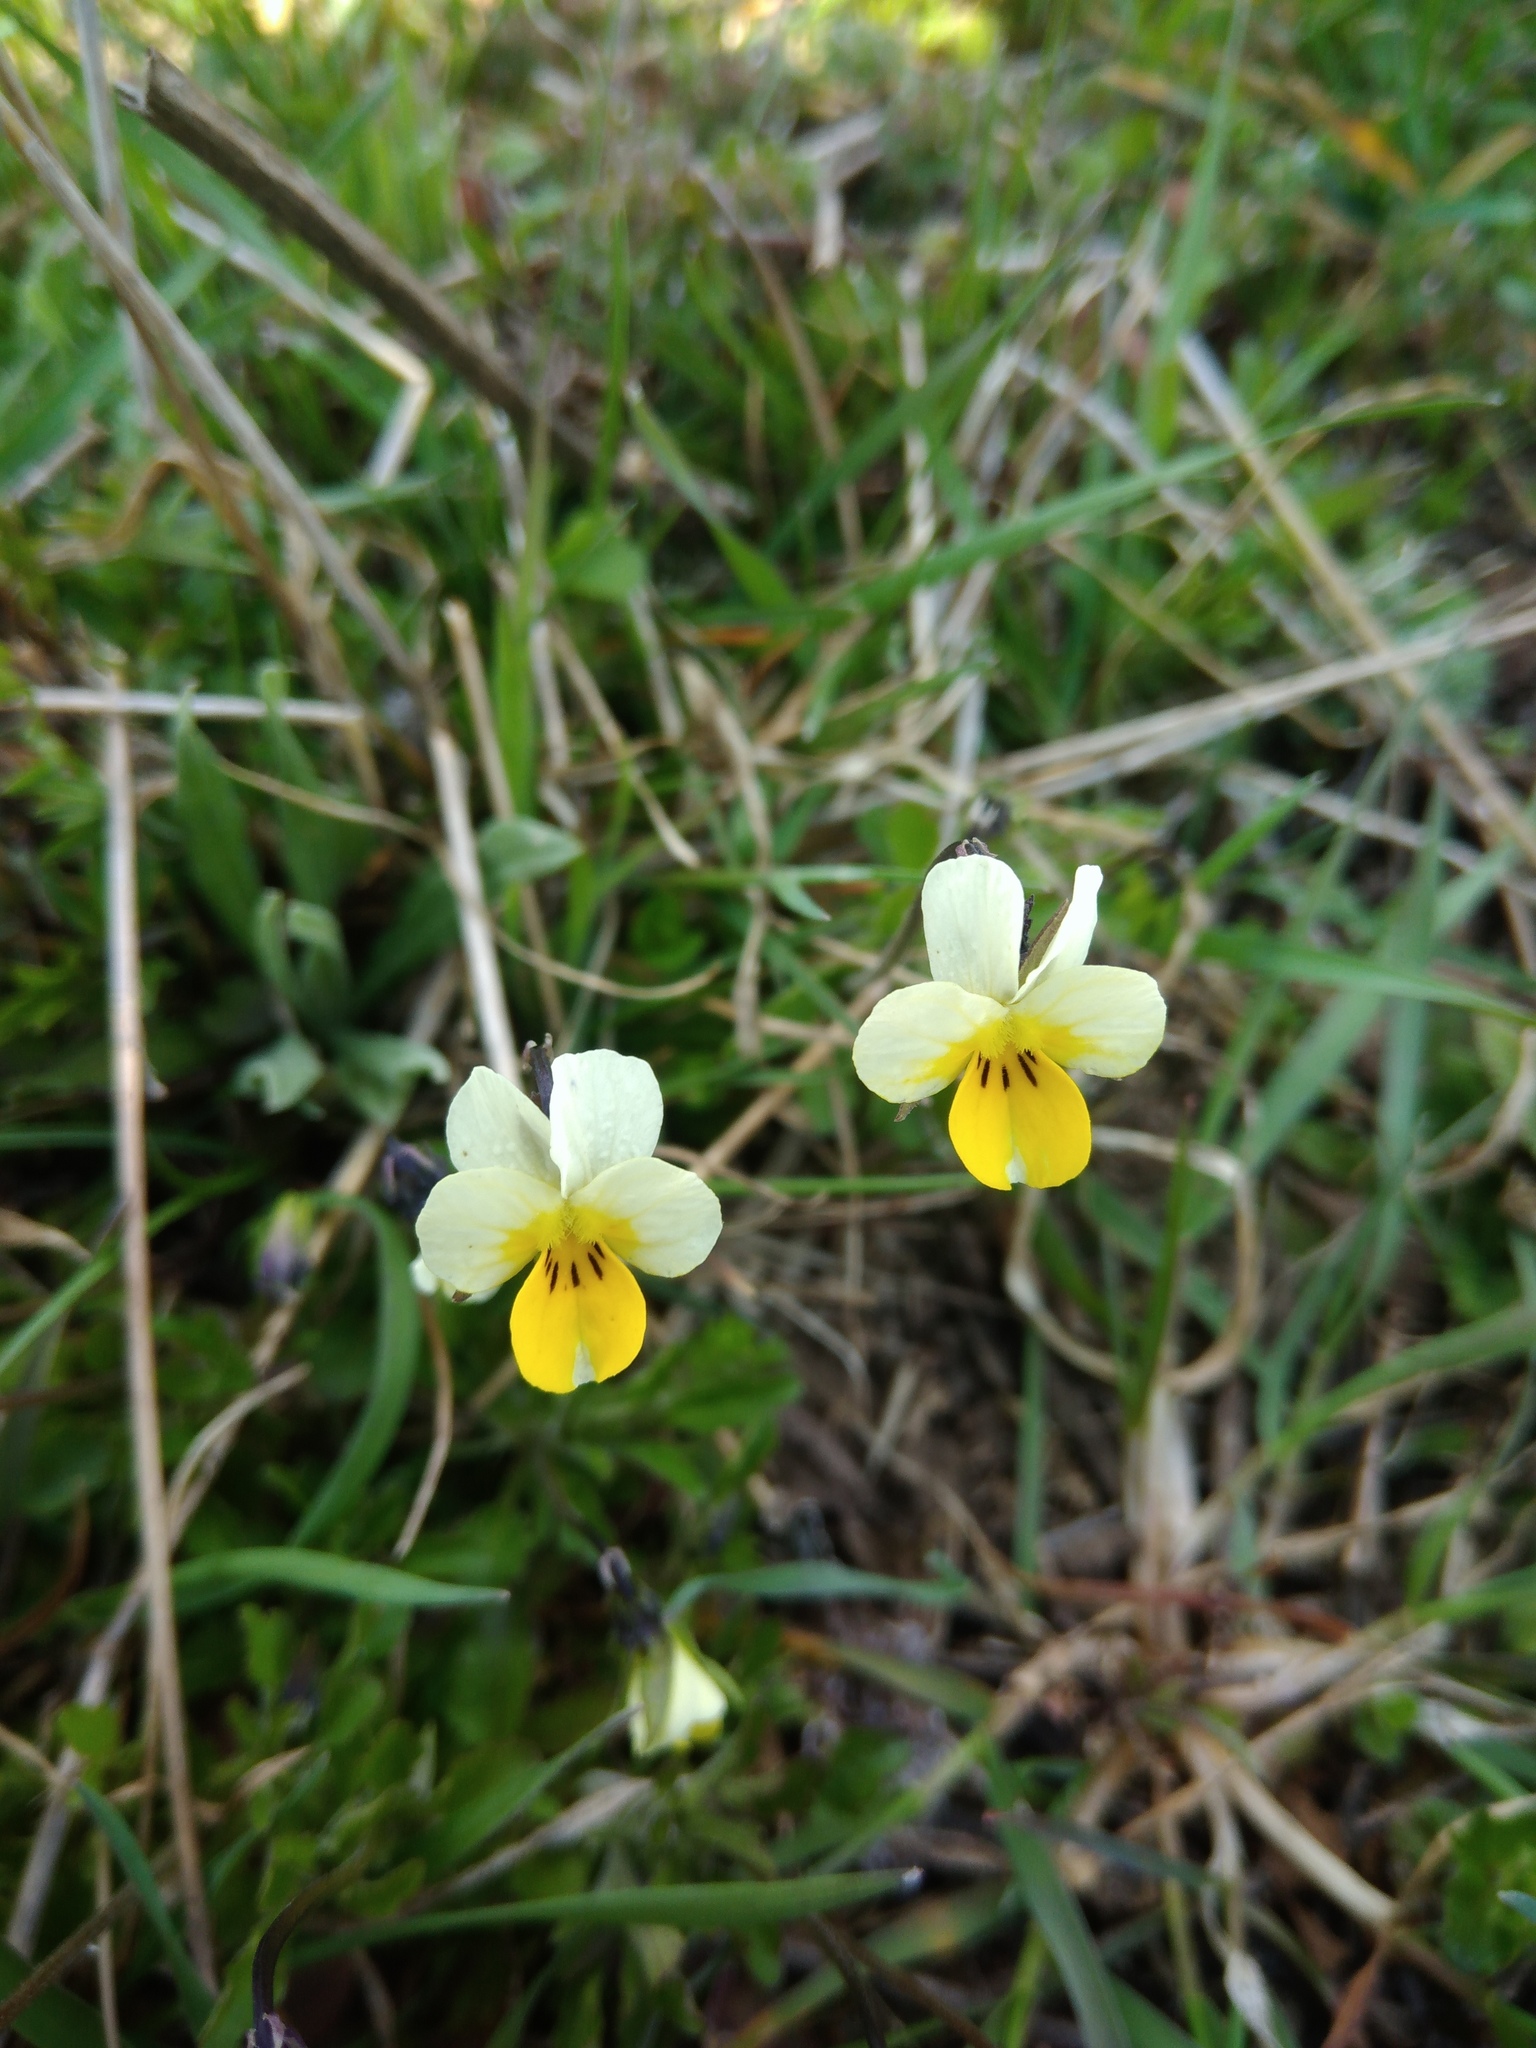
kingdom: Plantae
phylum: Tracheophyta
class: Magnoliopsida
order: Malpighiales
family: Violaceae
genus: Viola
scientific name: Viola arvensis
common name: Field pansy
